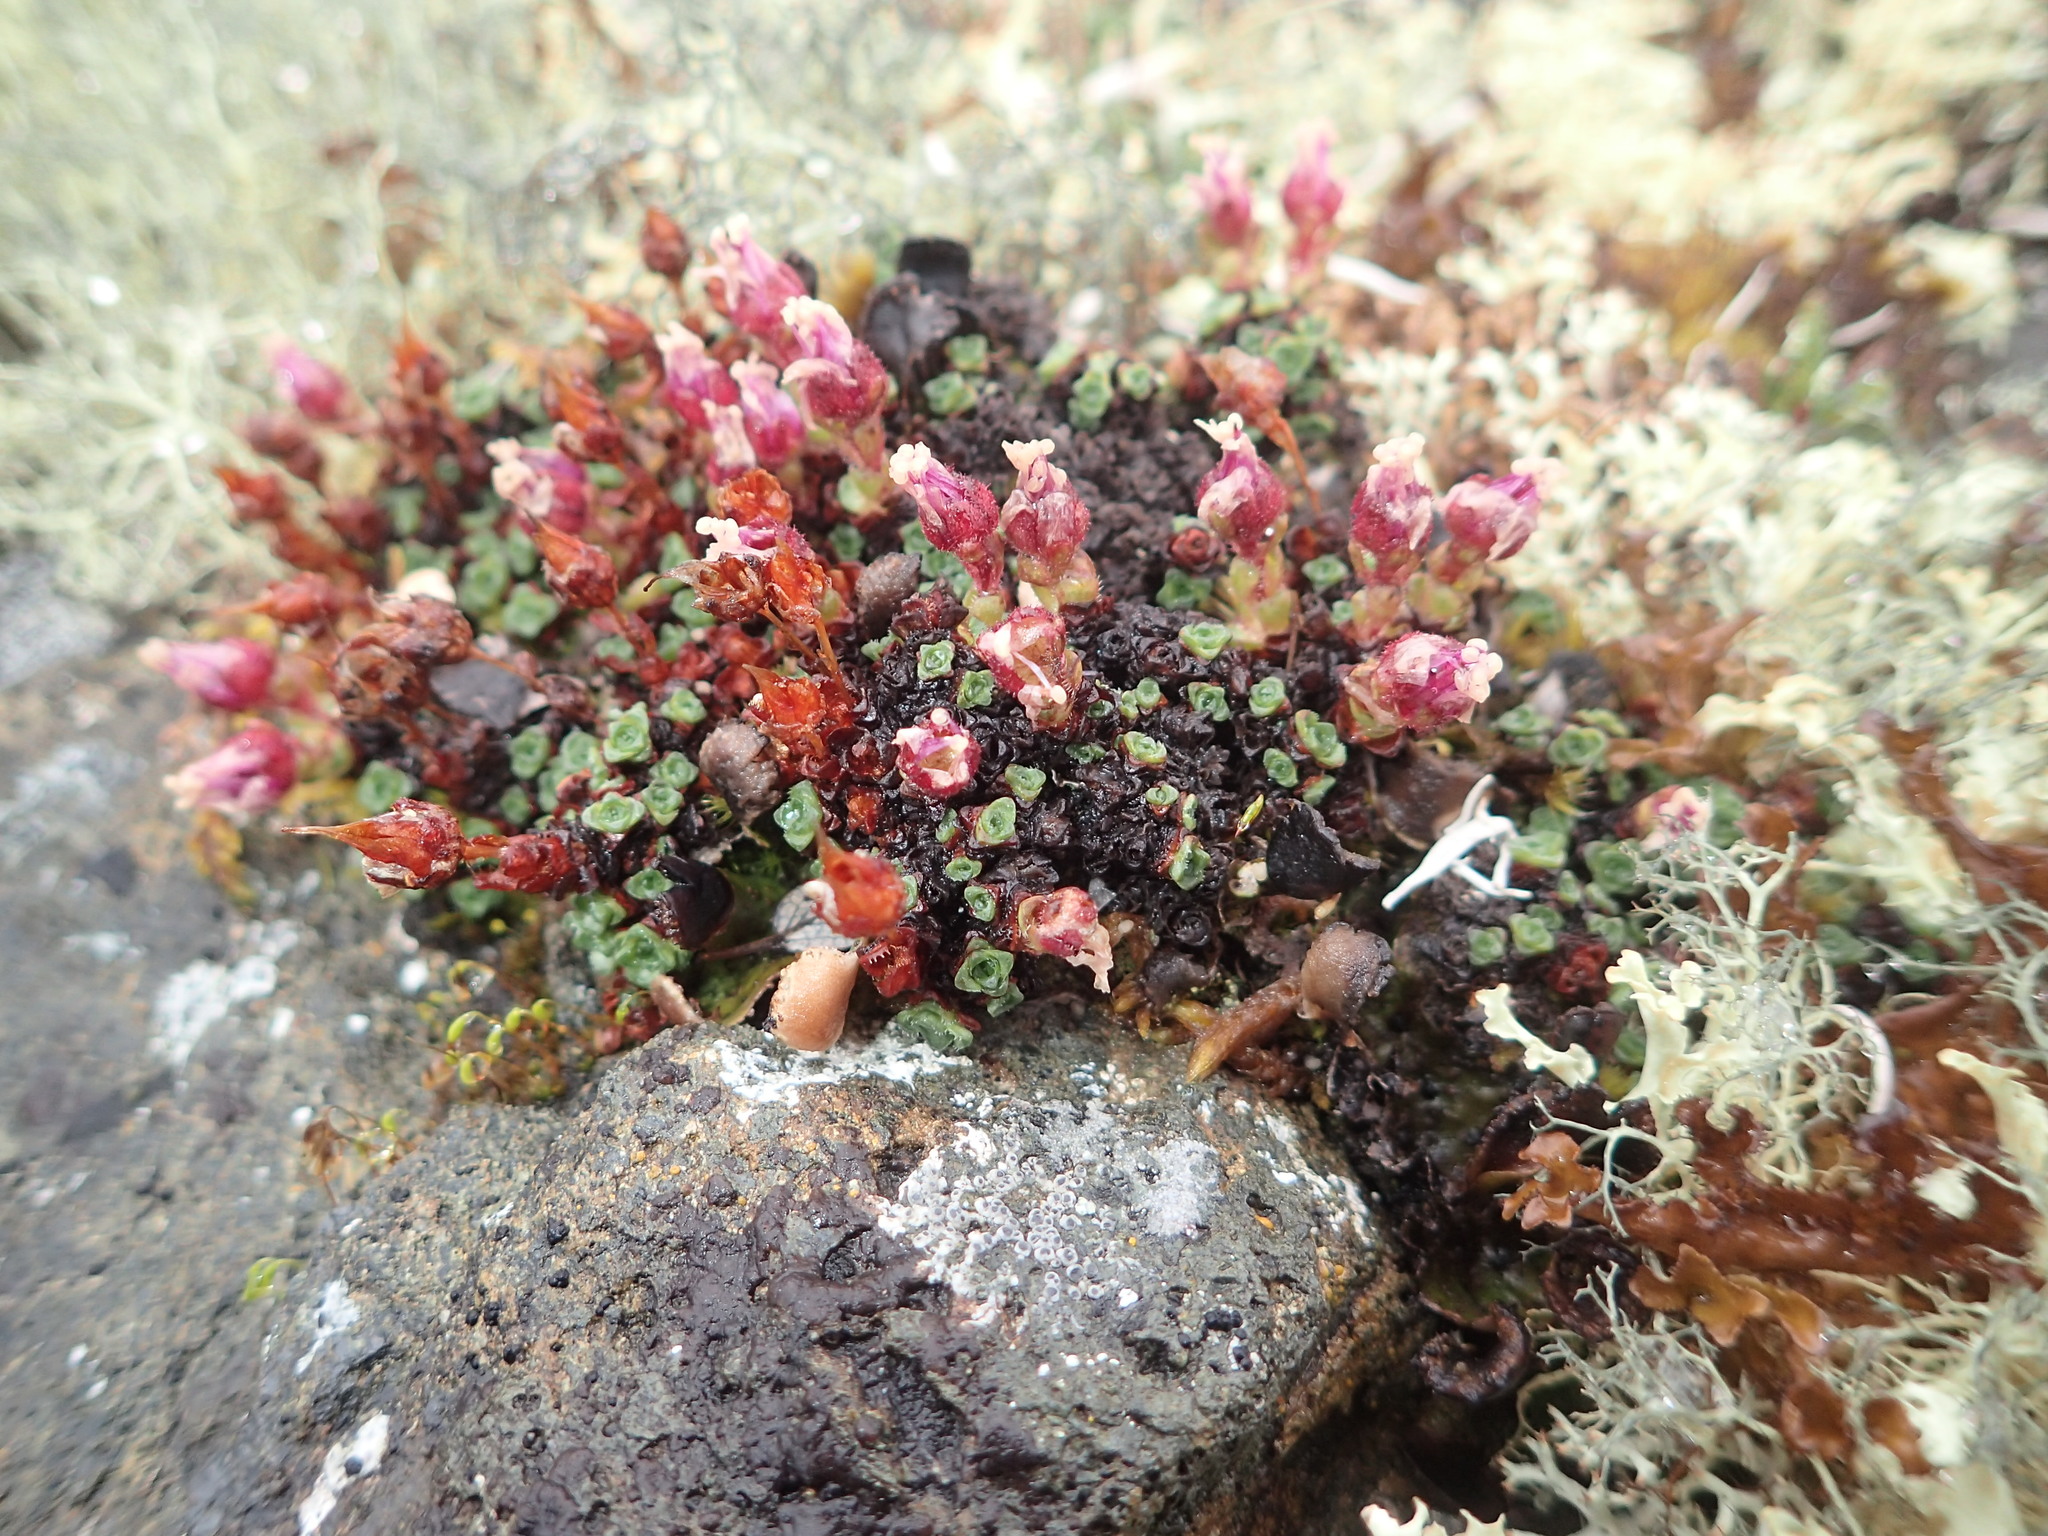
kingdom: Plantae
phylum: Tracheophyta
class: Magnoliopsida
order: Saxifragales
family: Saxifragaceae
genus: Saxifraga
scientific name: Saxifraga oppositifolia
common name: Purple saxifrage
